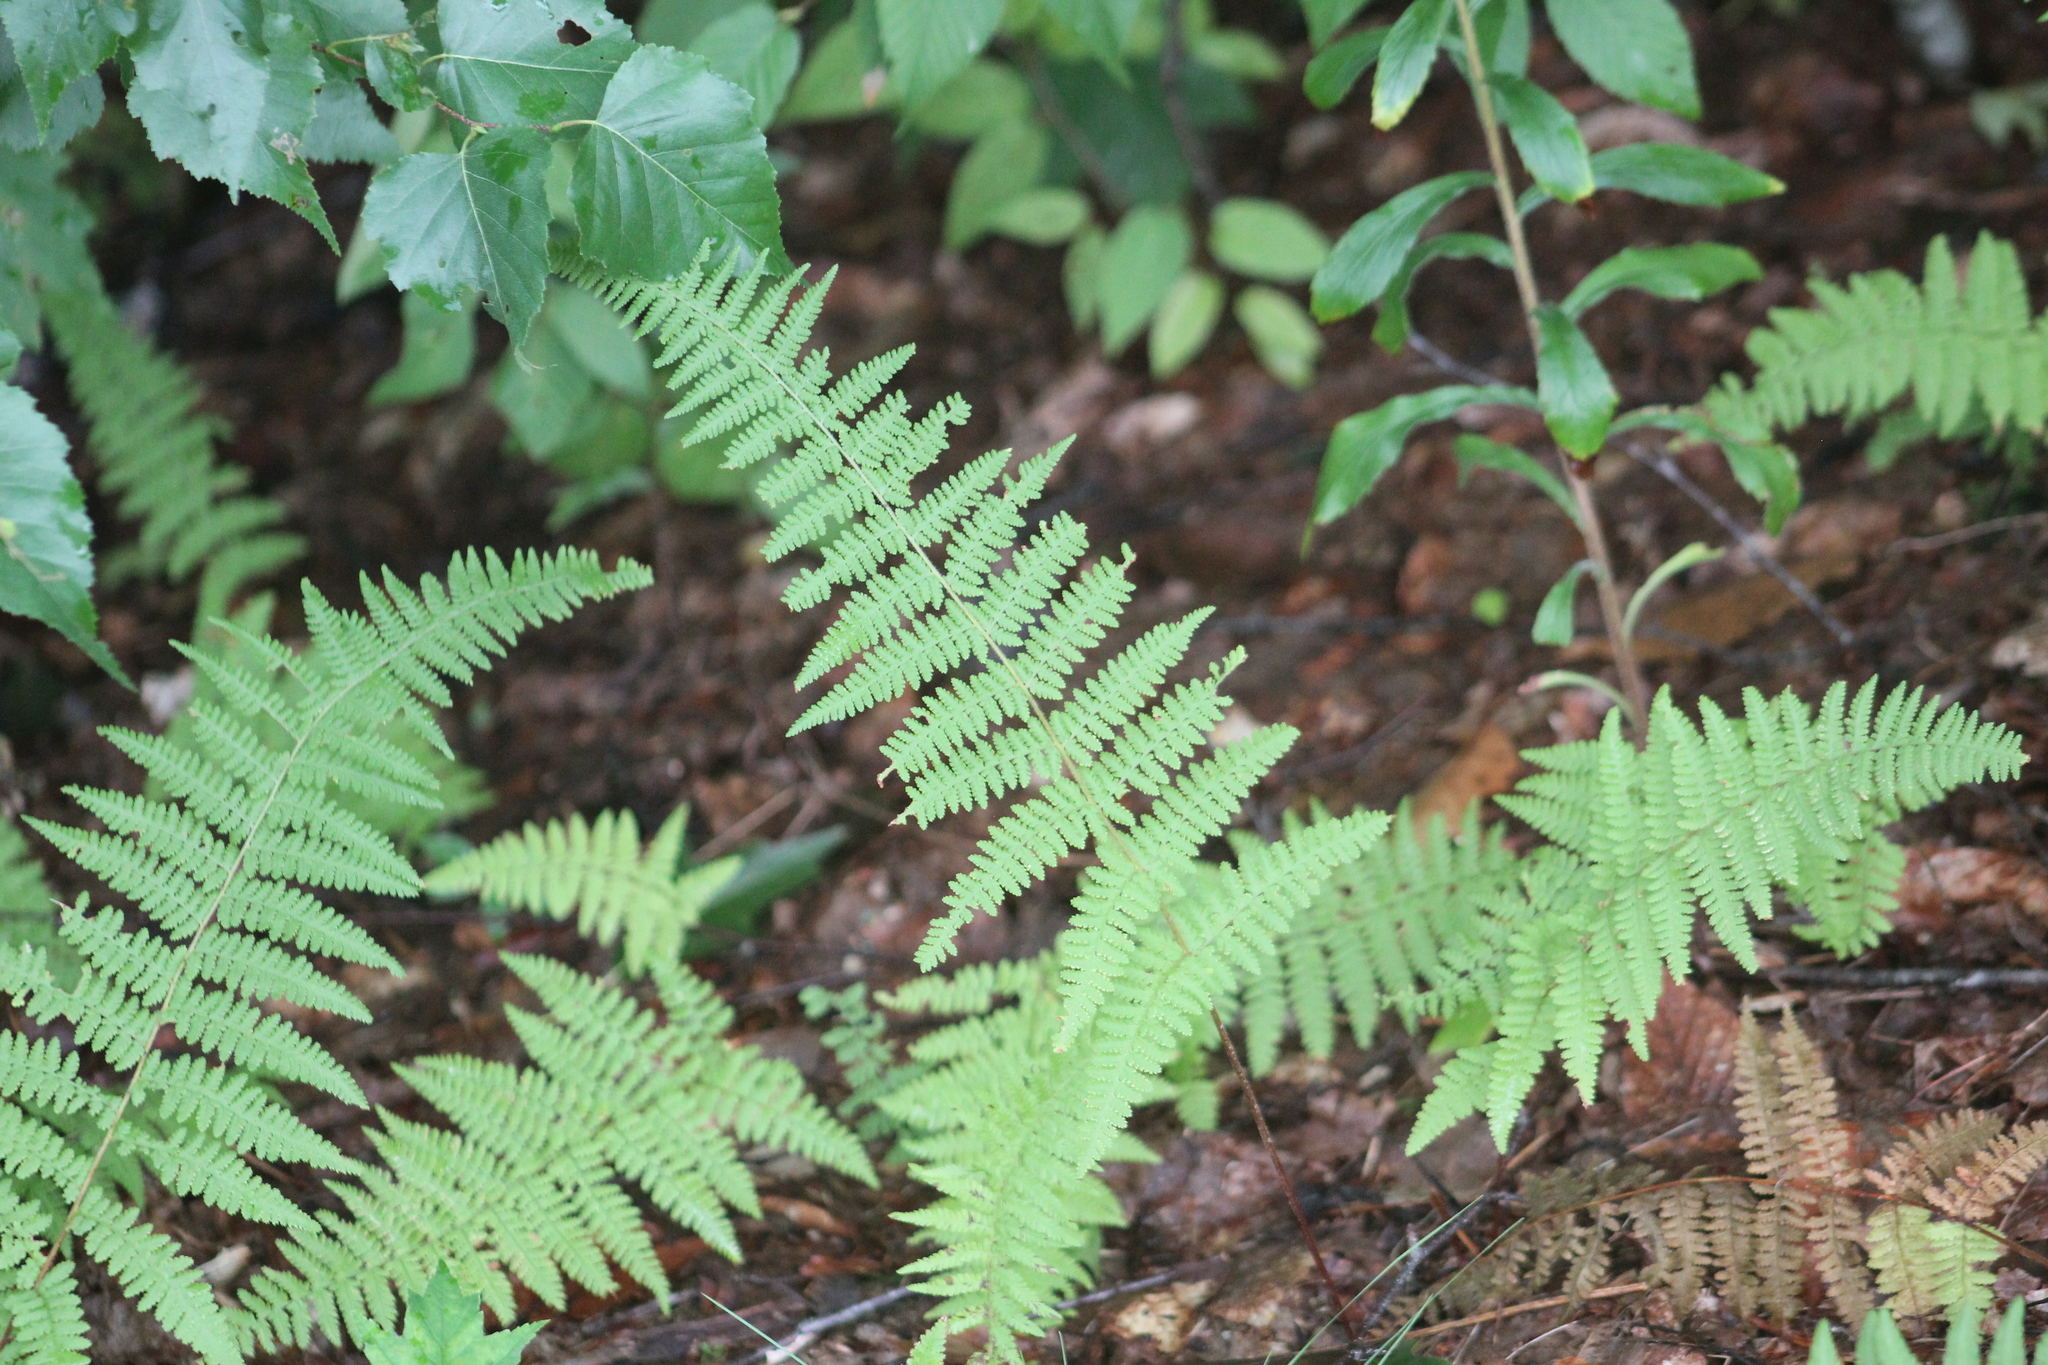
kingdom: Plantae
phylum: Tracheophyta
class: Polypodiopsida
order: Polypodiales
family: Dennstaedtiaceae
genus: Sitobolium
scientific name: Sitobolium punctilobum
